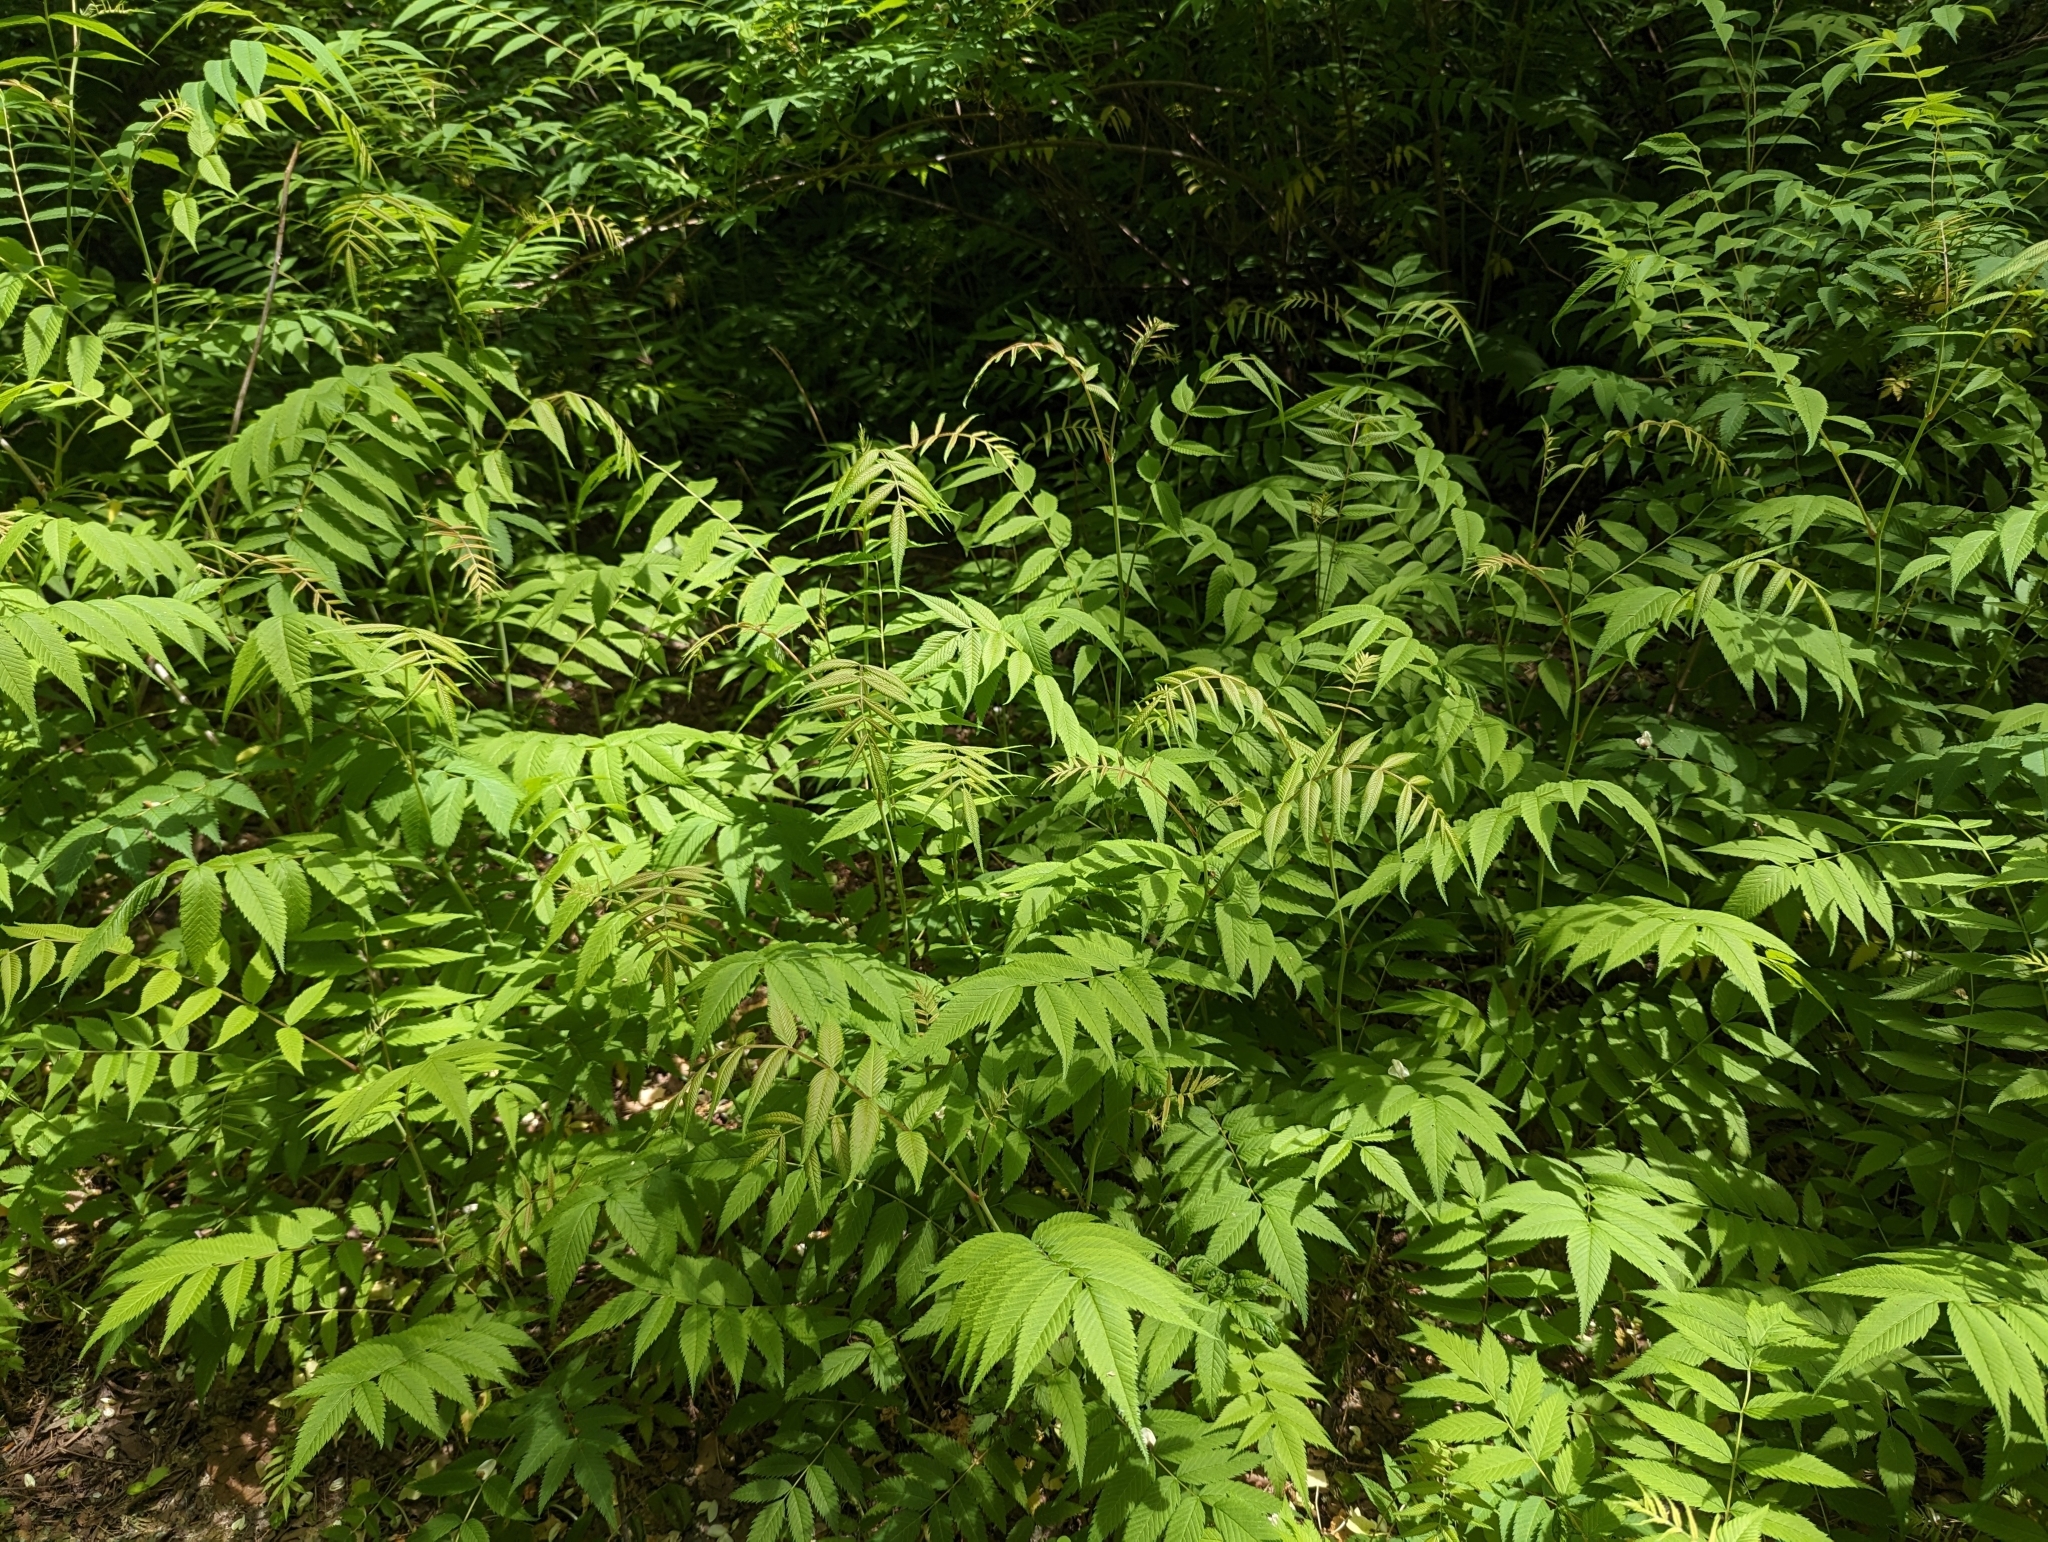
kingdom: Plantae
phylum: Tracheophyta
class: Magnoliopsida
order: Rosales
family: Rosaceae
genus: Sorbaria
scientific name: Sorbaria sorbifolia
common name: False spiraea
